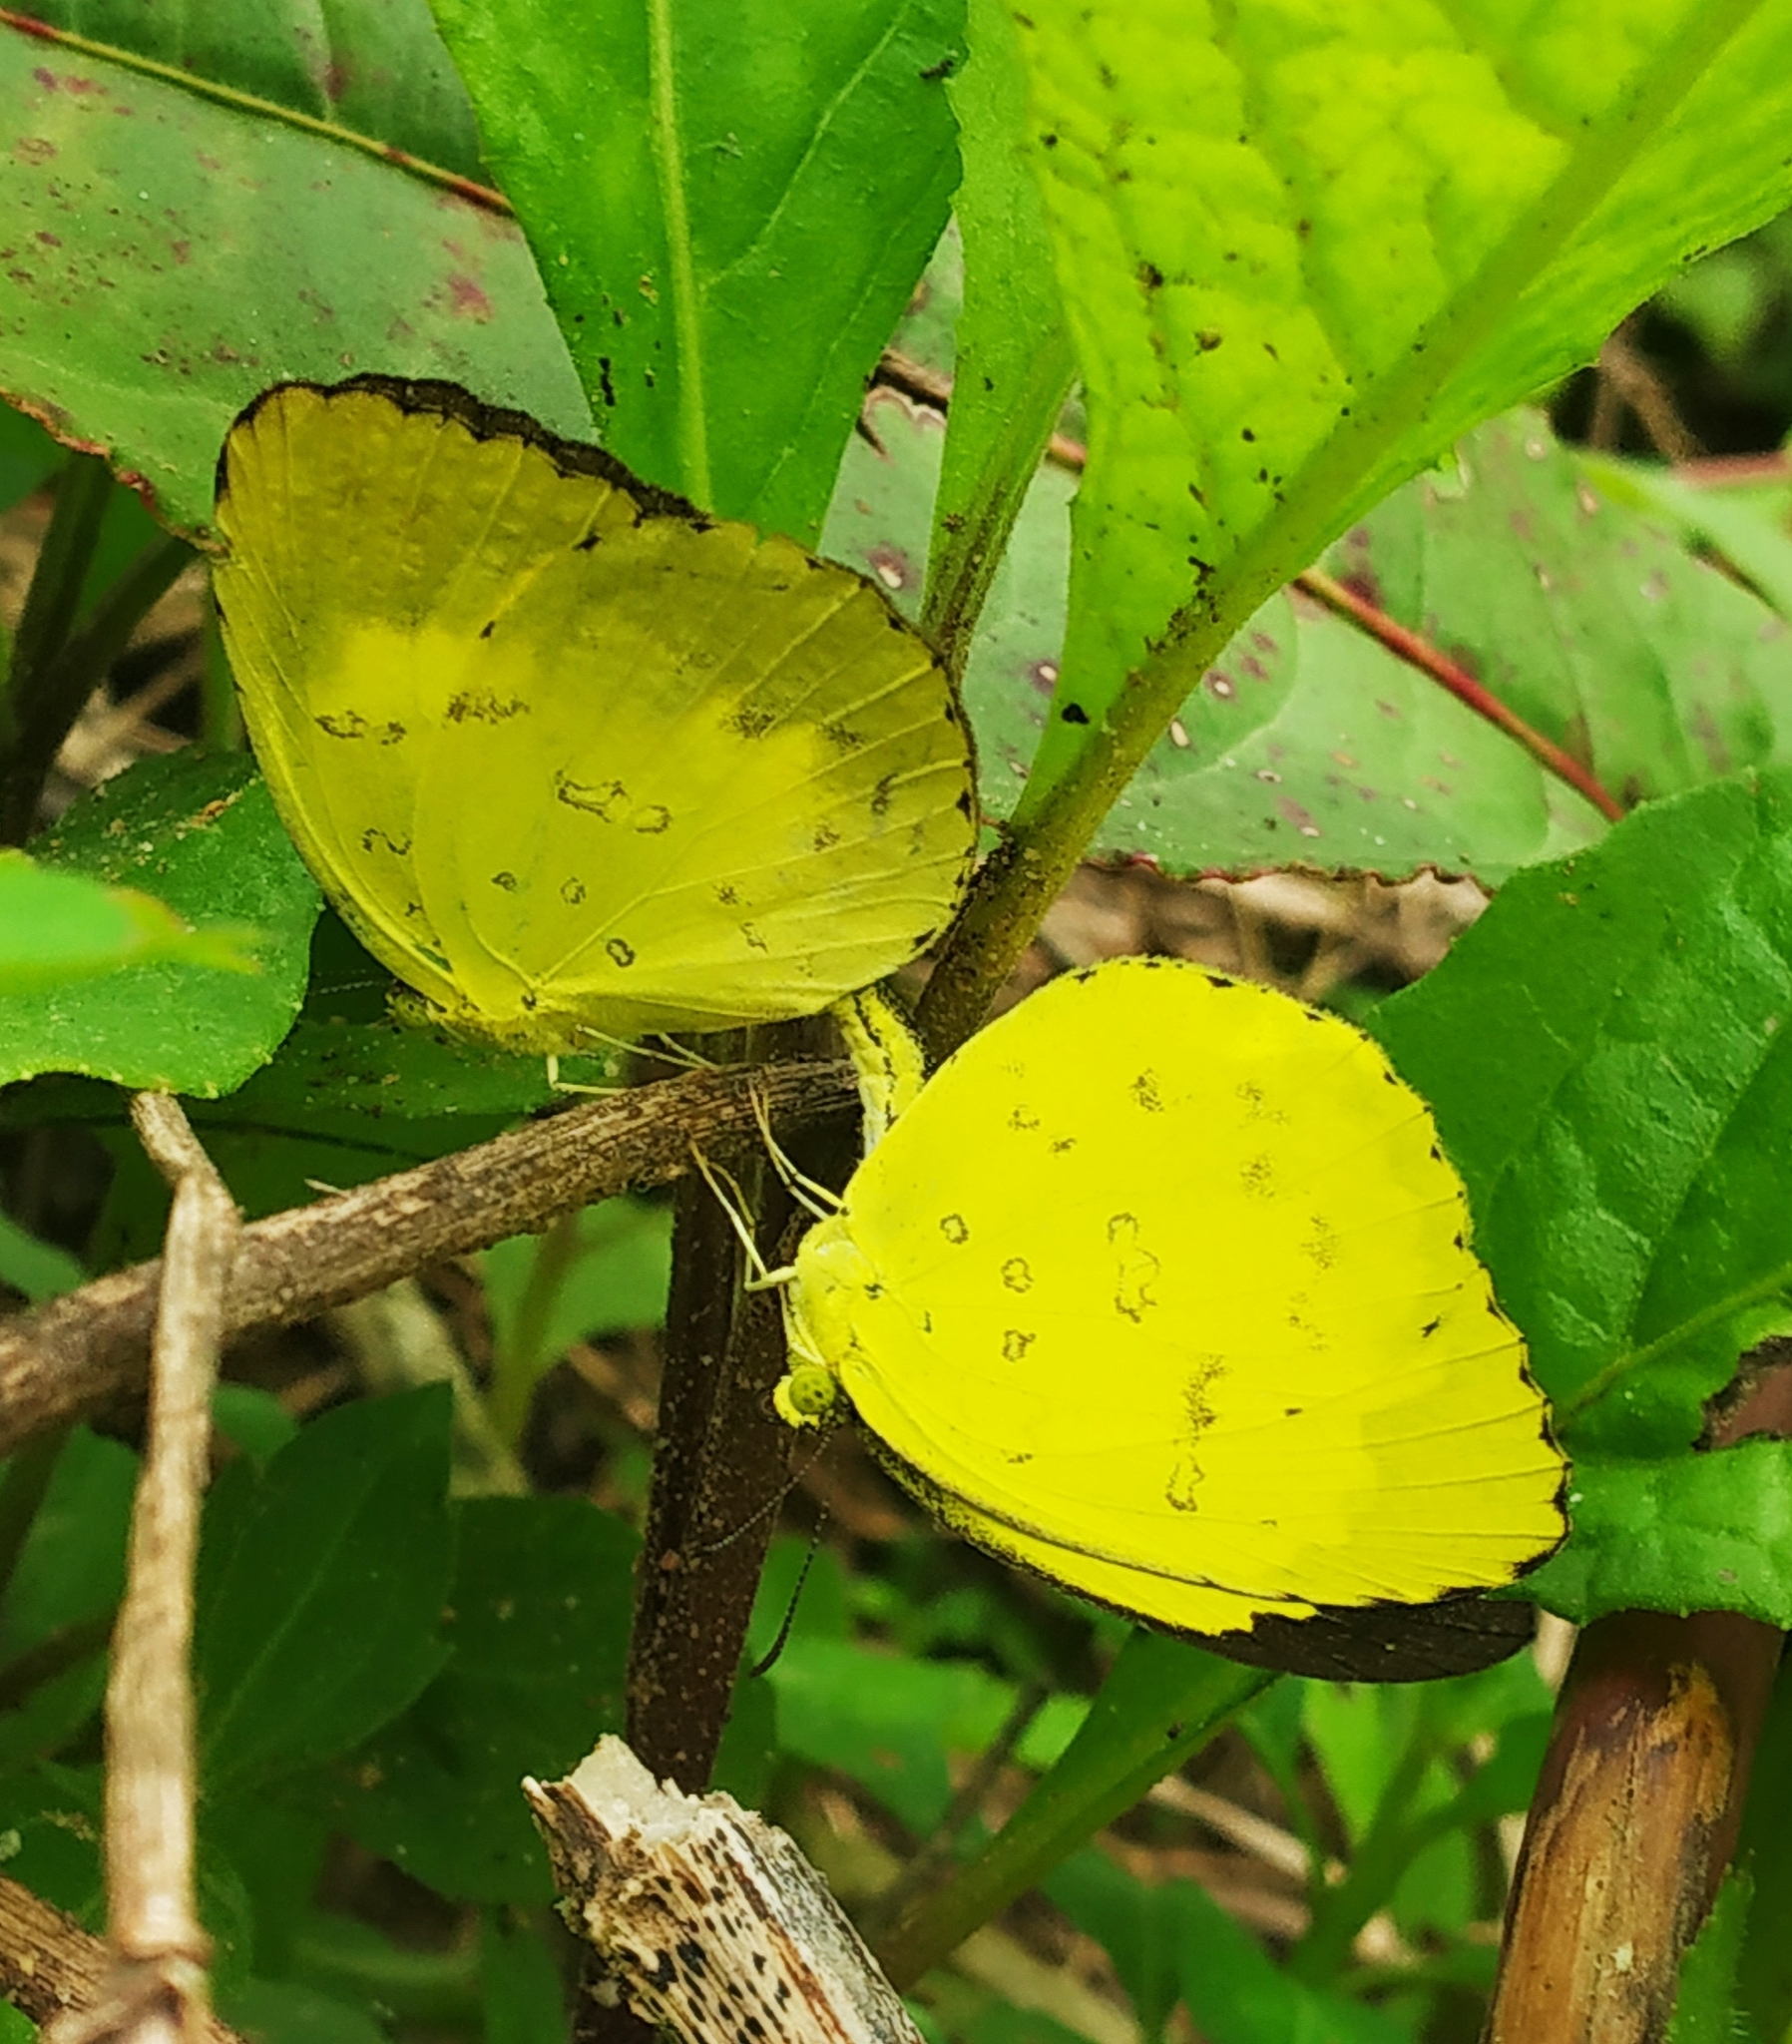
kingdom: Animalia
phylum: Arthropoda
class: Insecta
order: Lepidoptera
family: Pieridae
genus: Eurema
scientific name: Eurema andersoni
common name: One-spot yellow grass
